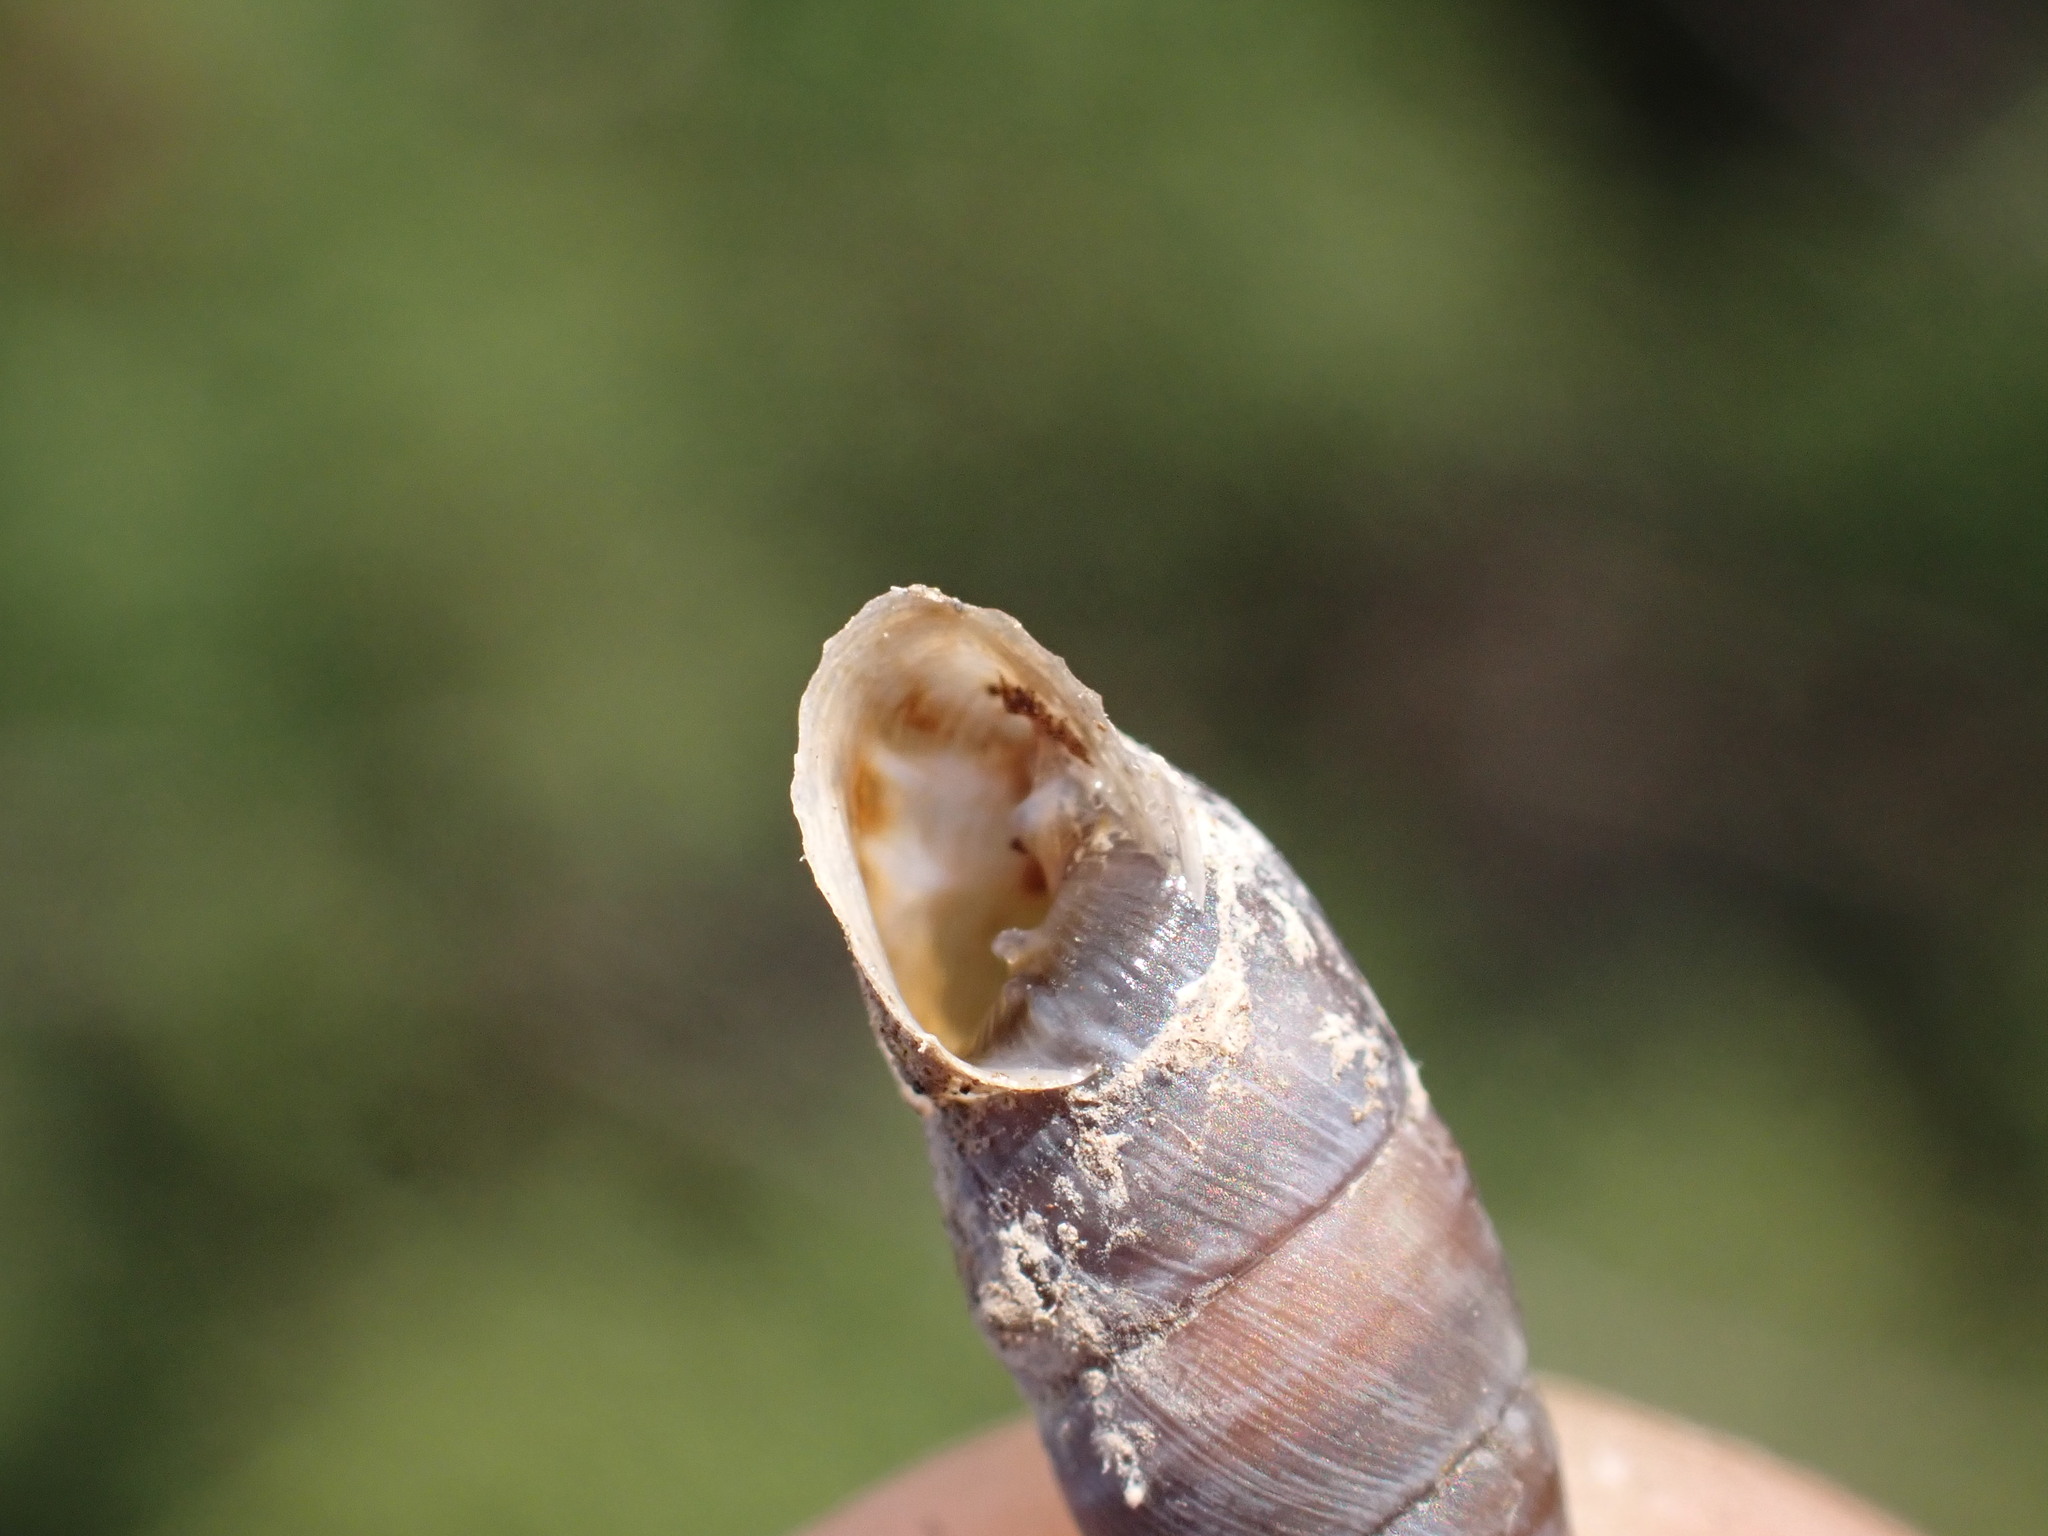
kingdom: Animalia
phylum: Mollusca
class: Gastropoda
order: Stylommatophora
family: Chondrinidae
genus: Solatopupa
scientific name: Solatopupa similis
